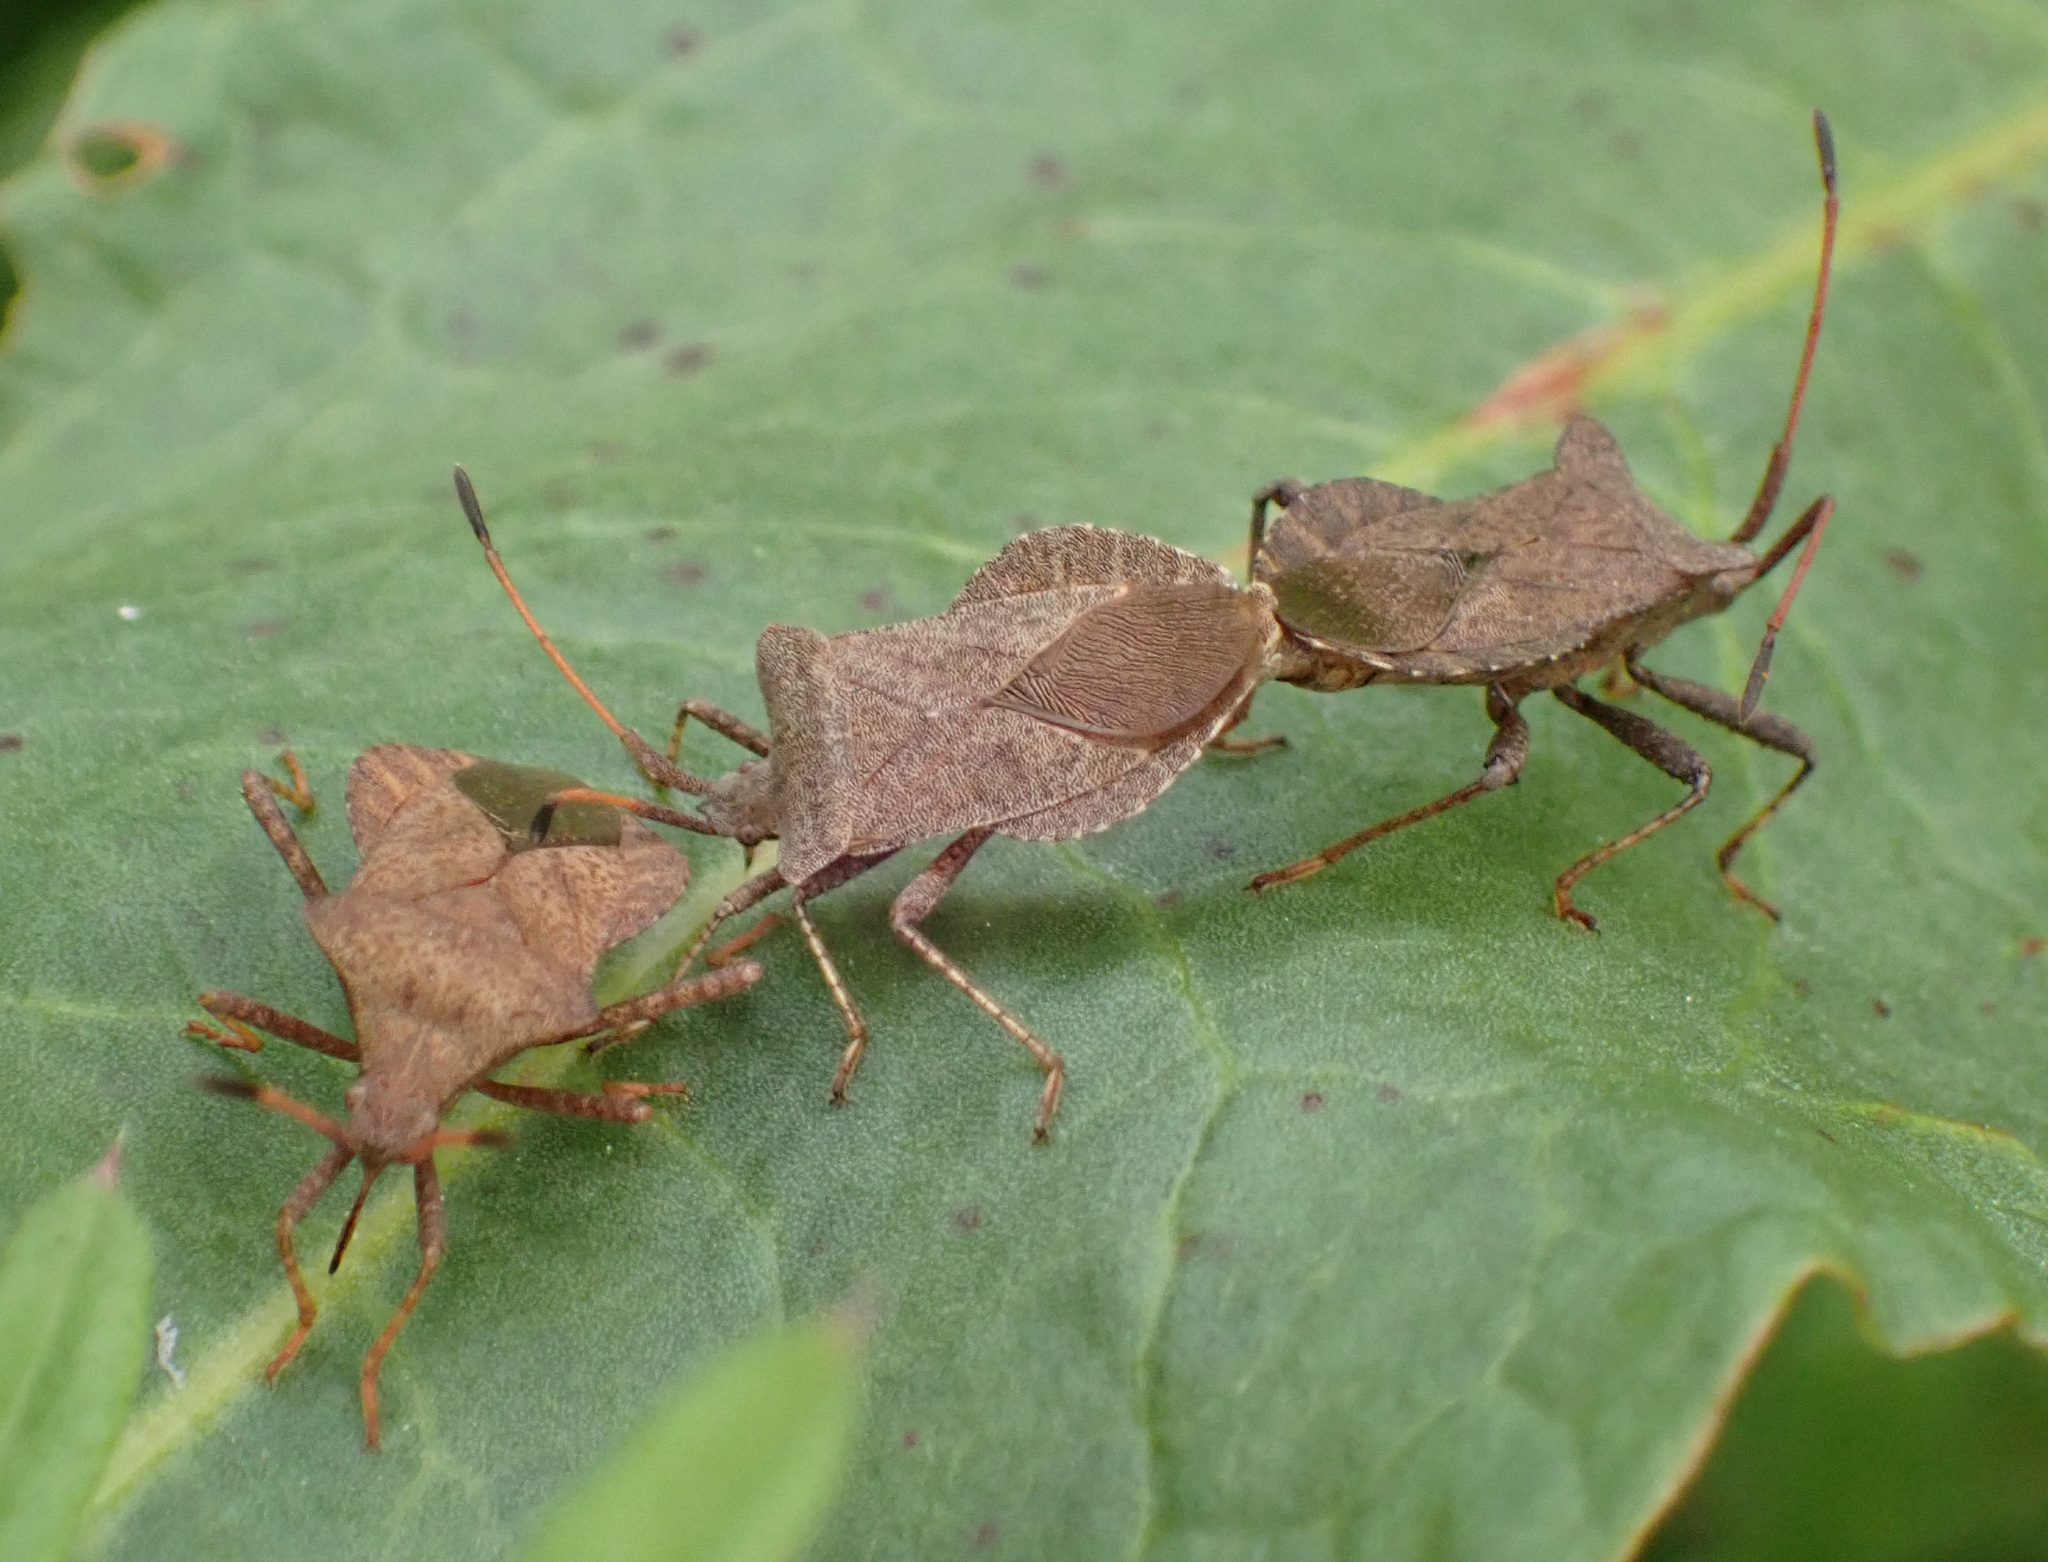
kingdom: Animalia
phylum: Arthropoda
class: Insecta
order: Hemiptera
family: Coreidae
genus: Coreus
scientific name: Coreus marginatus
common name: Dock bug
